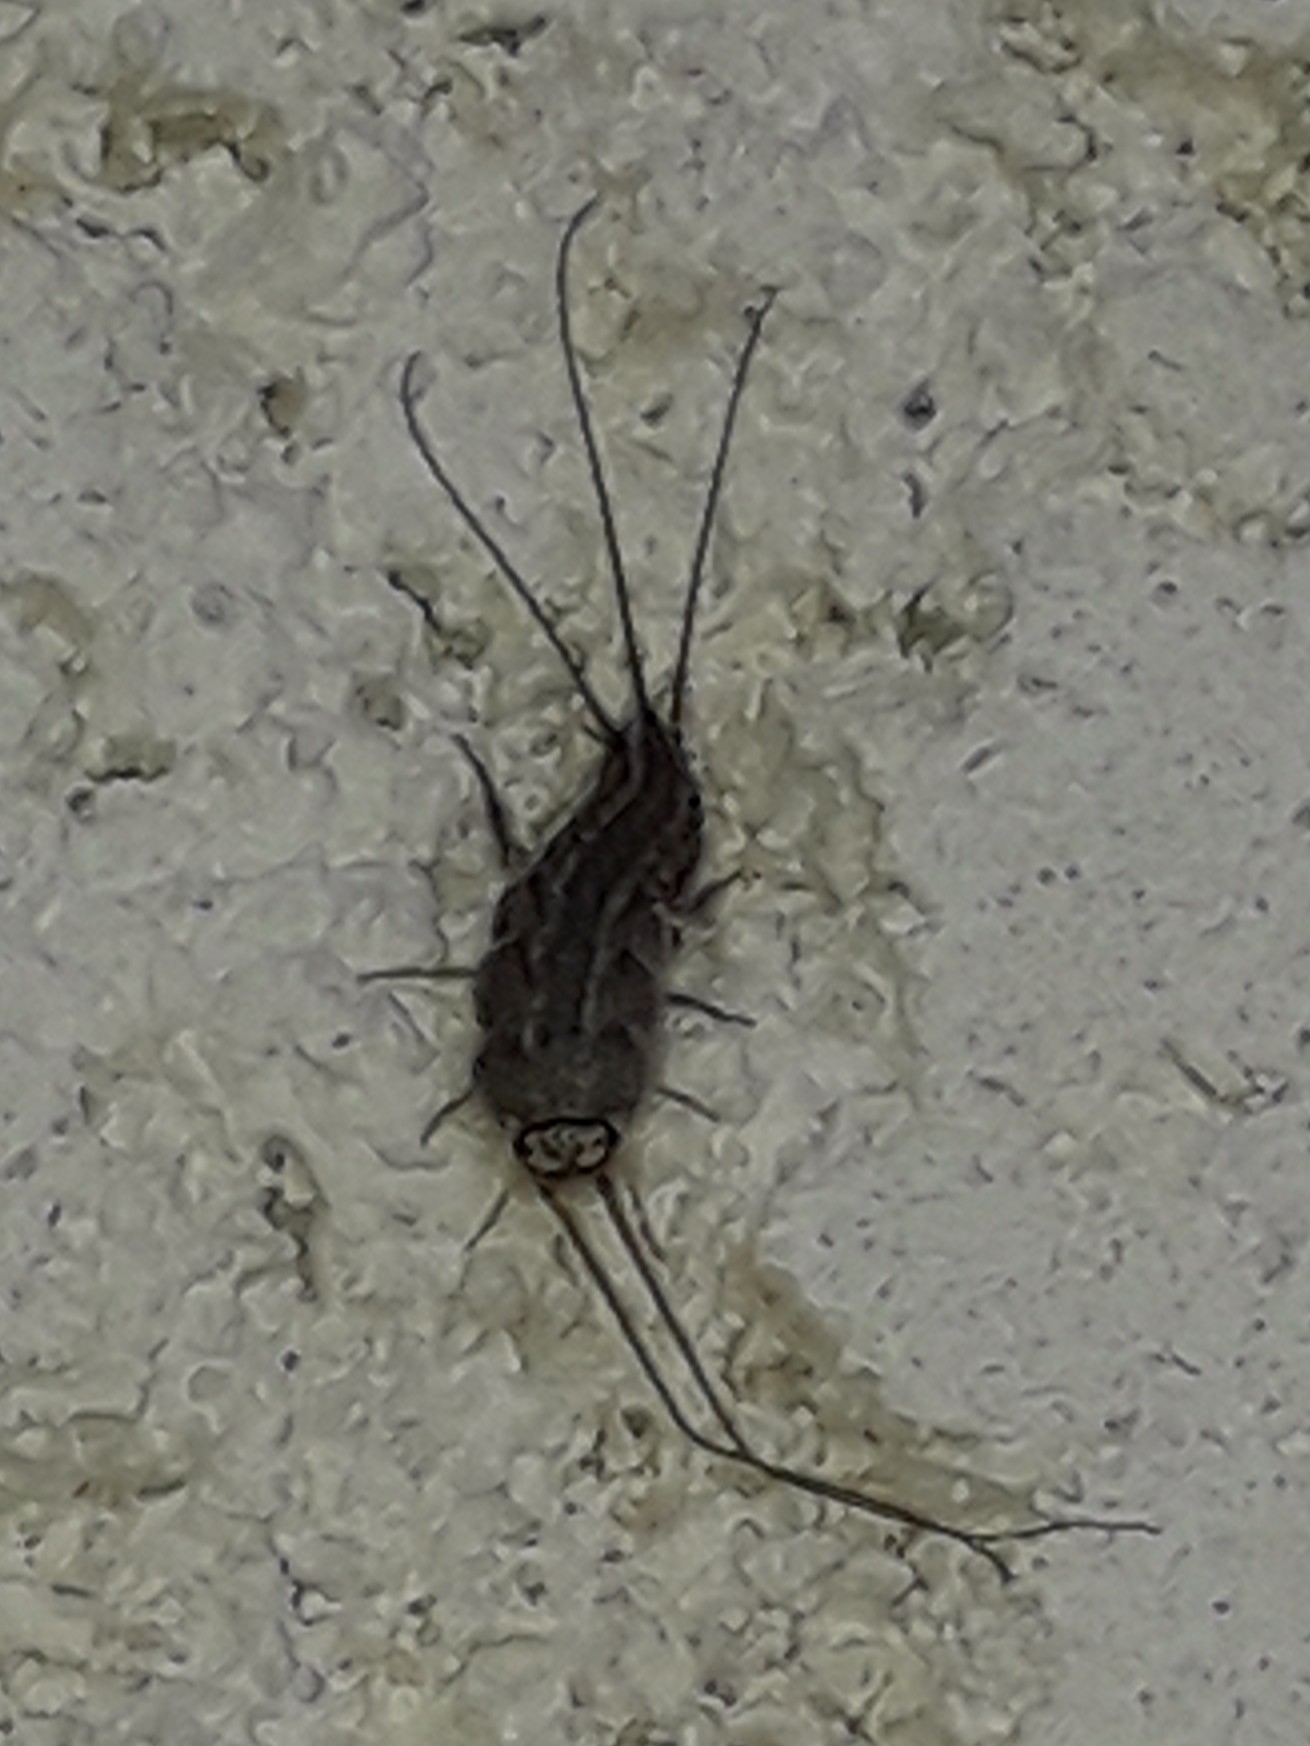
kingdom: Animalia
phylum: Arthropoda
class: Insecta
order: Zygentoma
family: Lepismatidae
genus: Ctenolepisma
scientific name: Ctenolepisma lineata
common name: Four-lined silverfish
